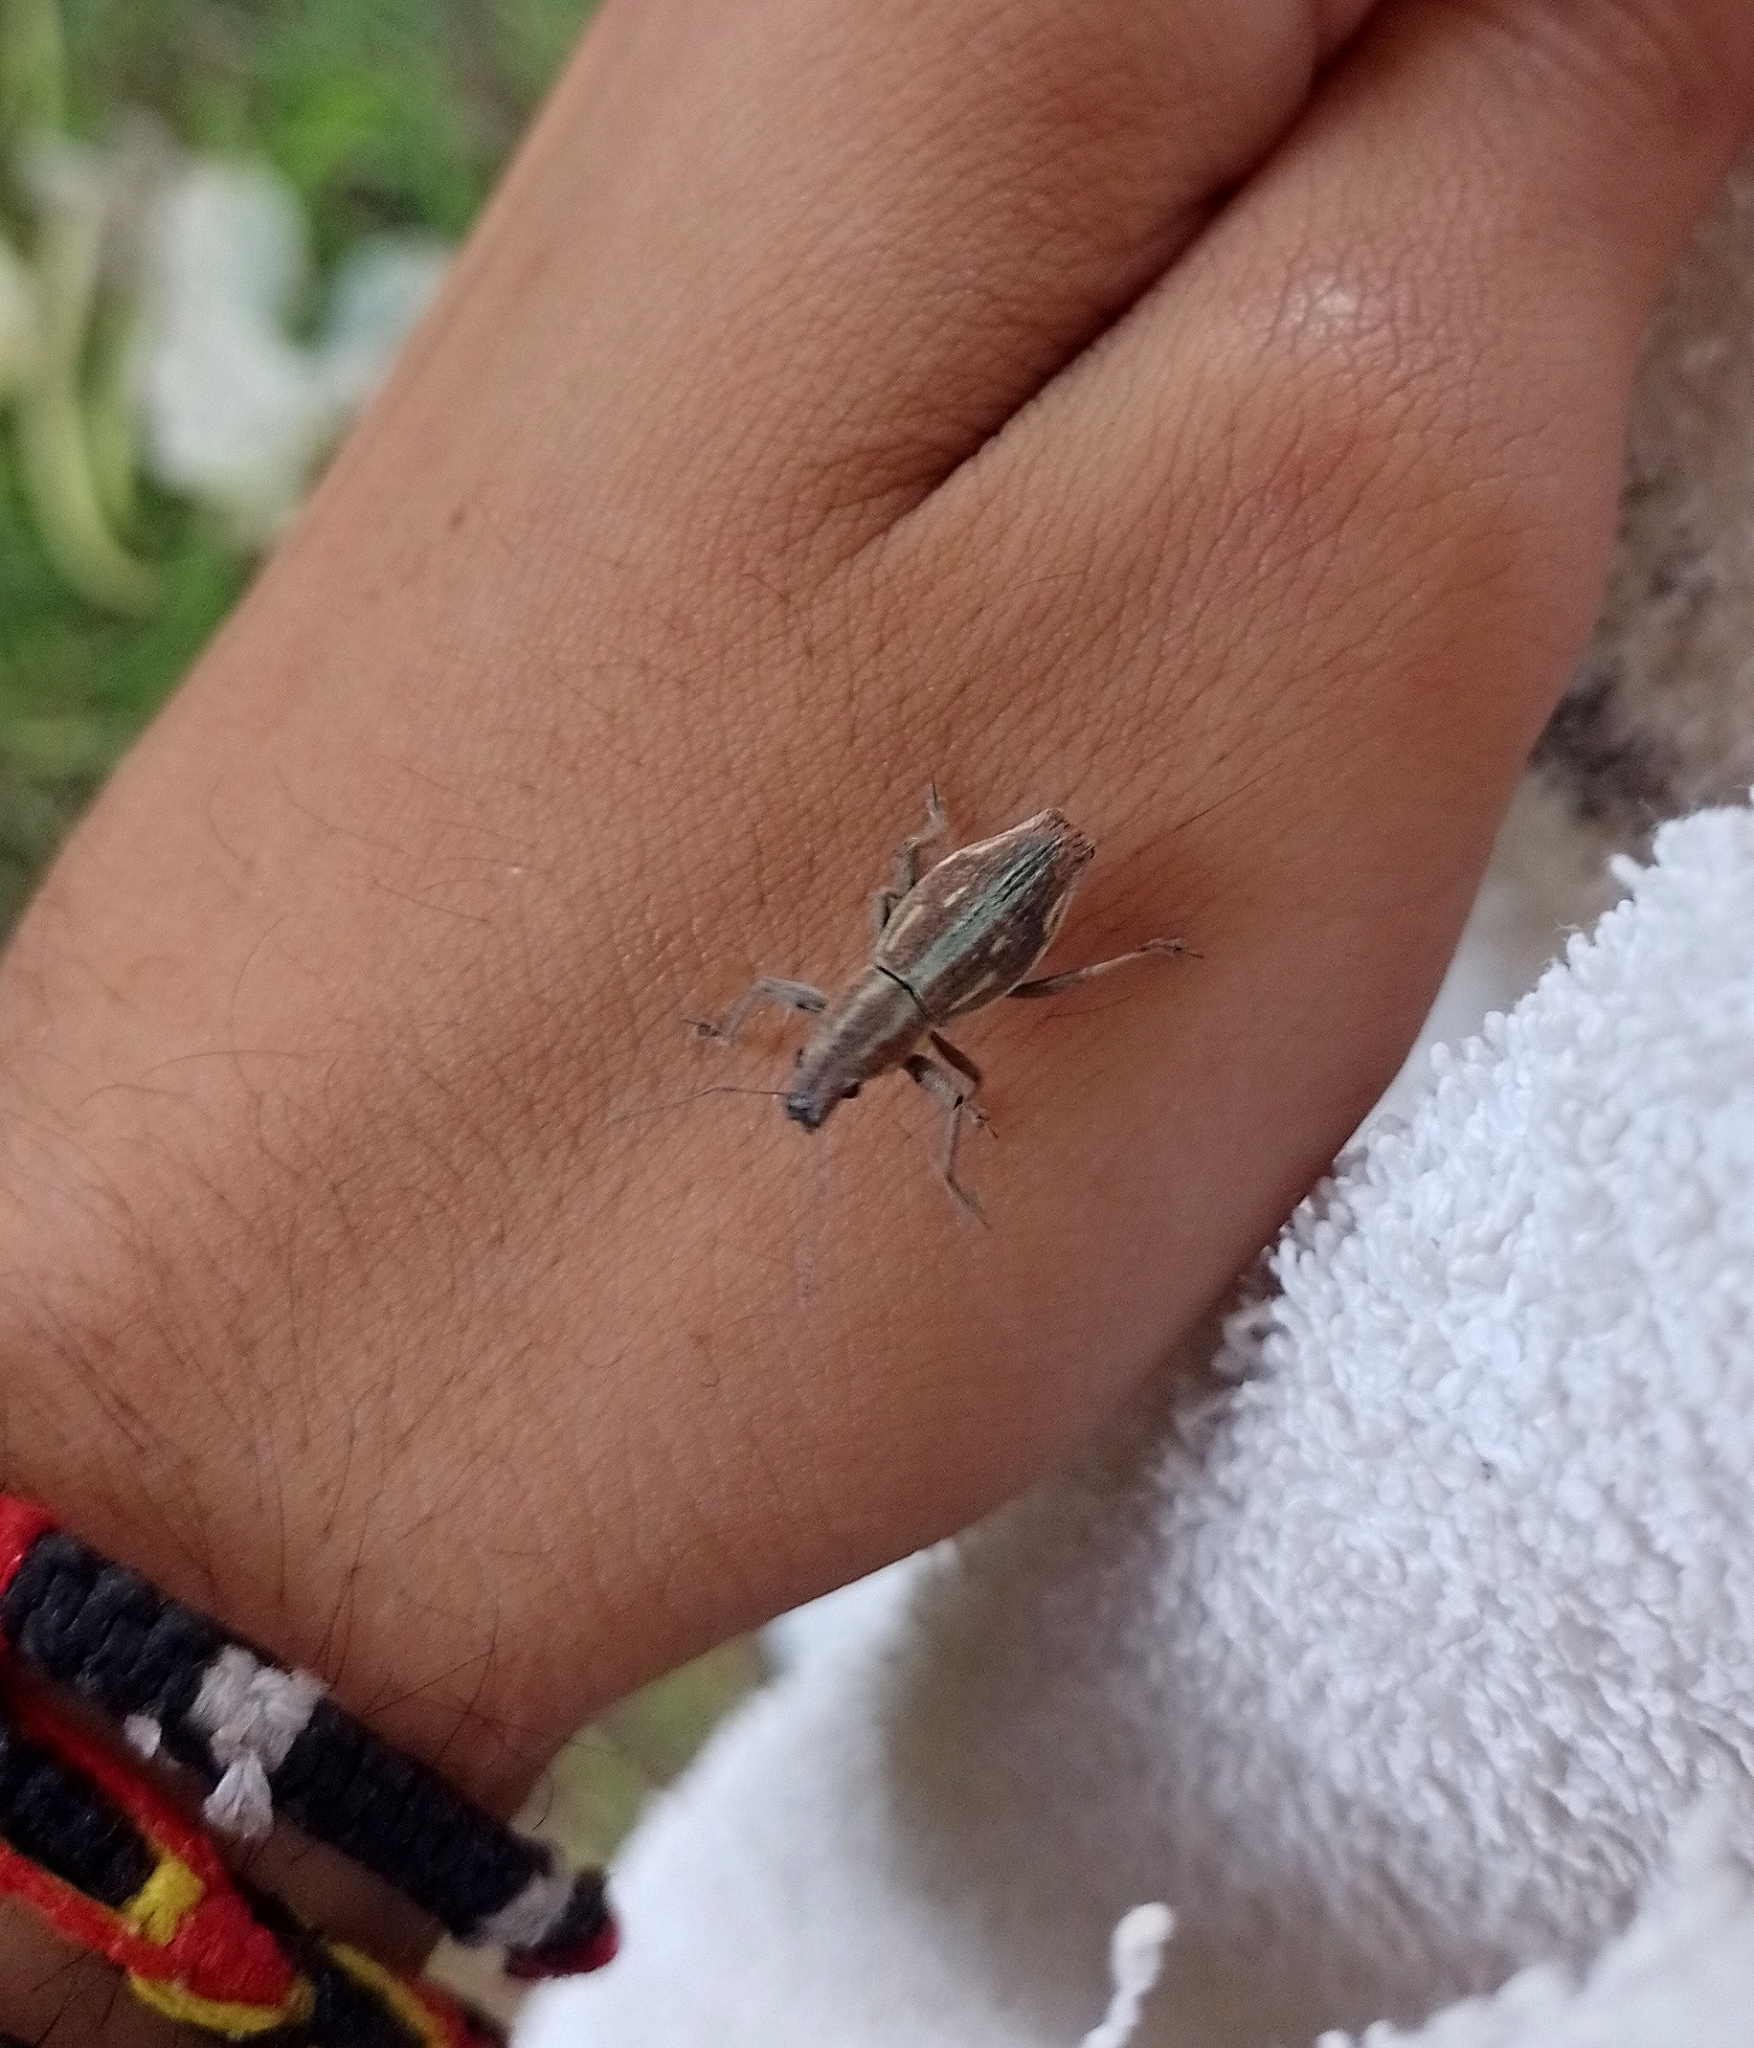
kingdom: Animalia
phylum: Arthropoda
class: Insecta
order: Coleoptera
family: Curculionidae
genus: Naupactus
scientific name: Naupactus xanthographus
